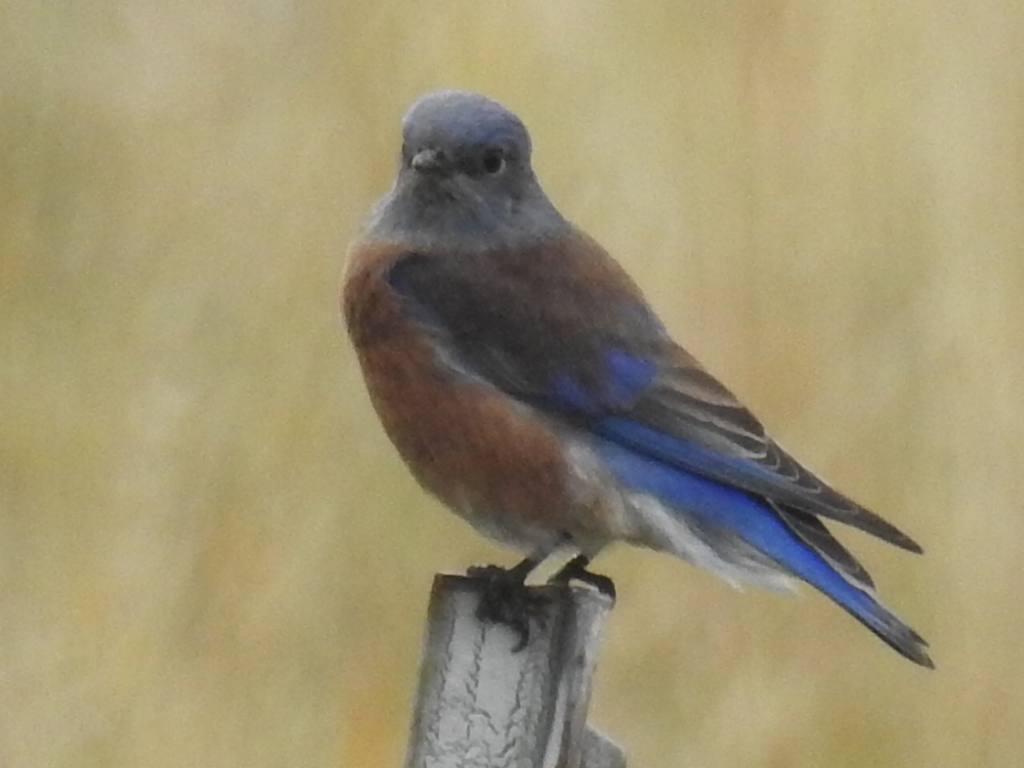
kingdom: Animalia
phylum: Chordata
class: Aves
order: Passeriformes
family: Turdidae
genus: Sialia
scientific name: Sialia mexicana
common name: Western bluebird
